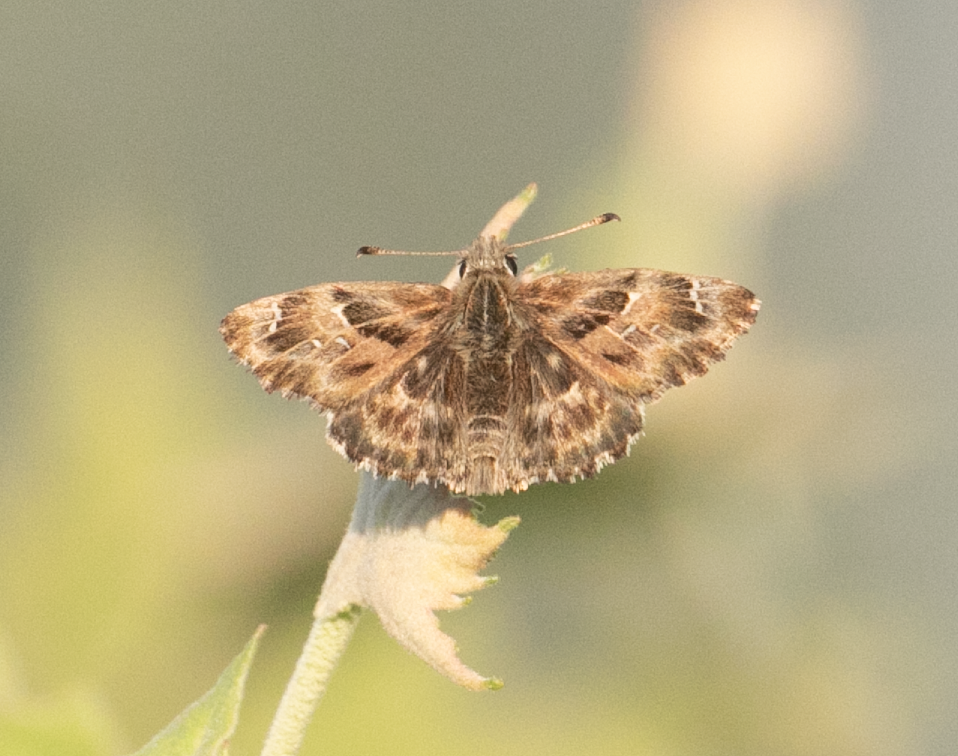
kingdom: Animalia
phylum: Arthropoda
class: Insecta
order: Lepidoptera
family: Hesperiidae
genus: Carcharodus
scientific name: Carcharodus alceae
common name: Mallow skipper
